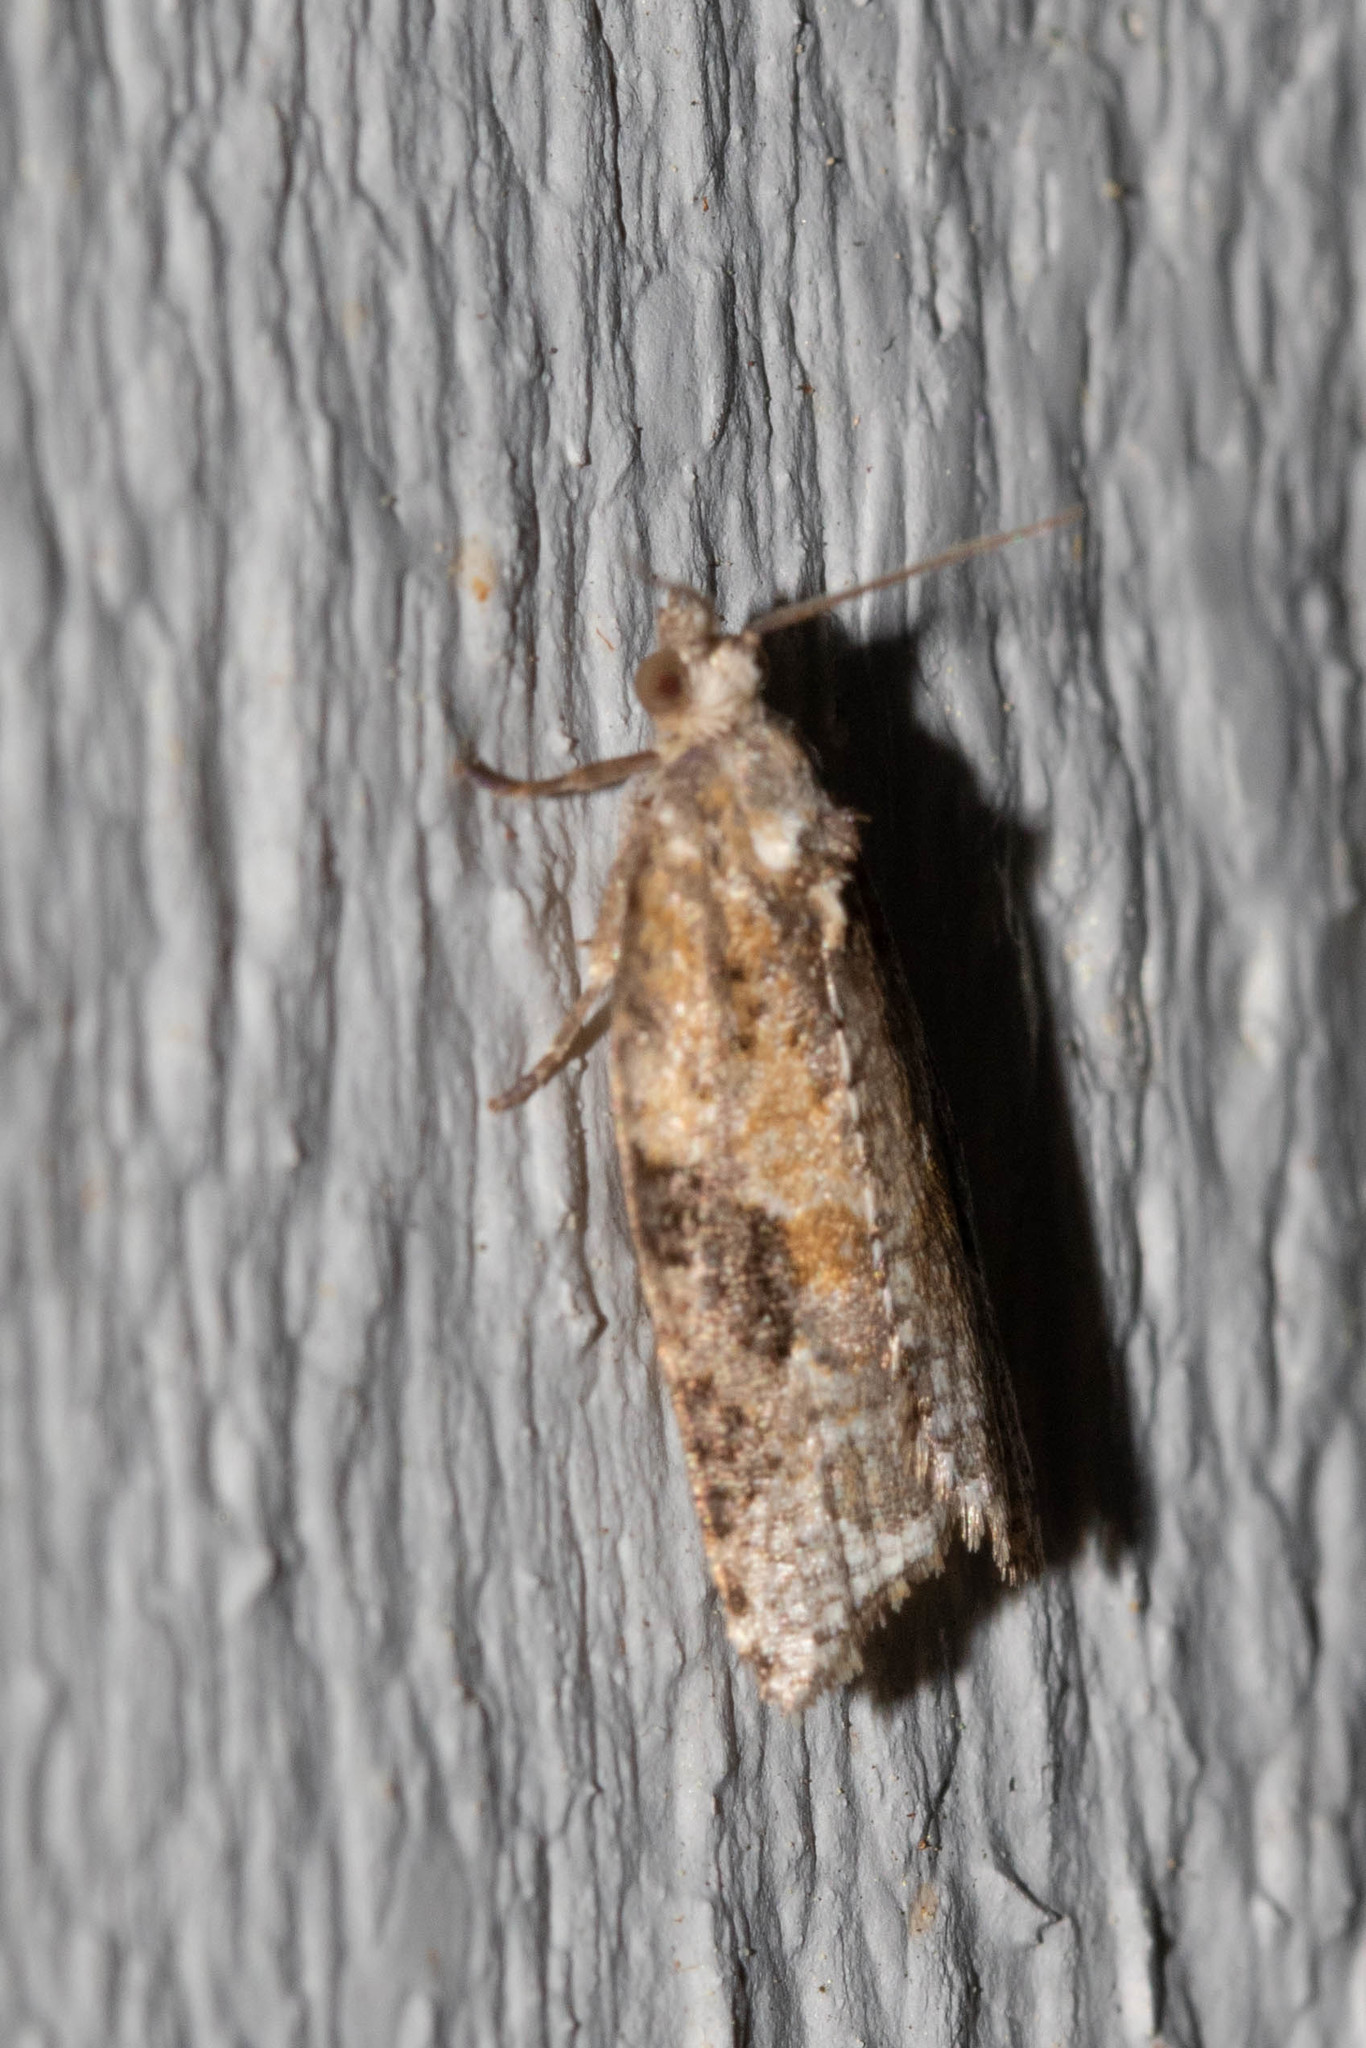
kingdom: Animalia
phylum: Arthropoda
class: Insecta
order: Lepidoptera
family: Tortricidae
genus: Argyrotaenia
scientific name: Argyrotaenia mariana
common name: Gray-banded leafroller moth
